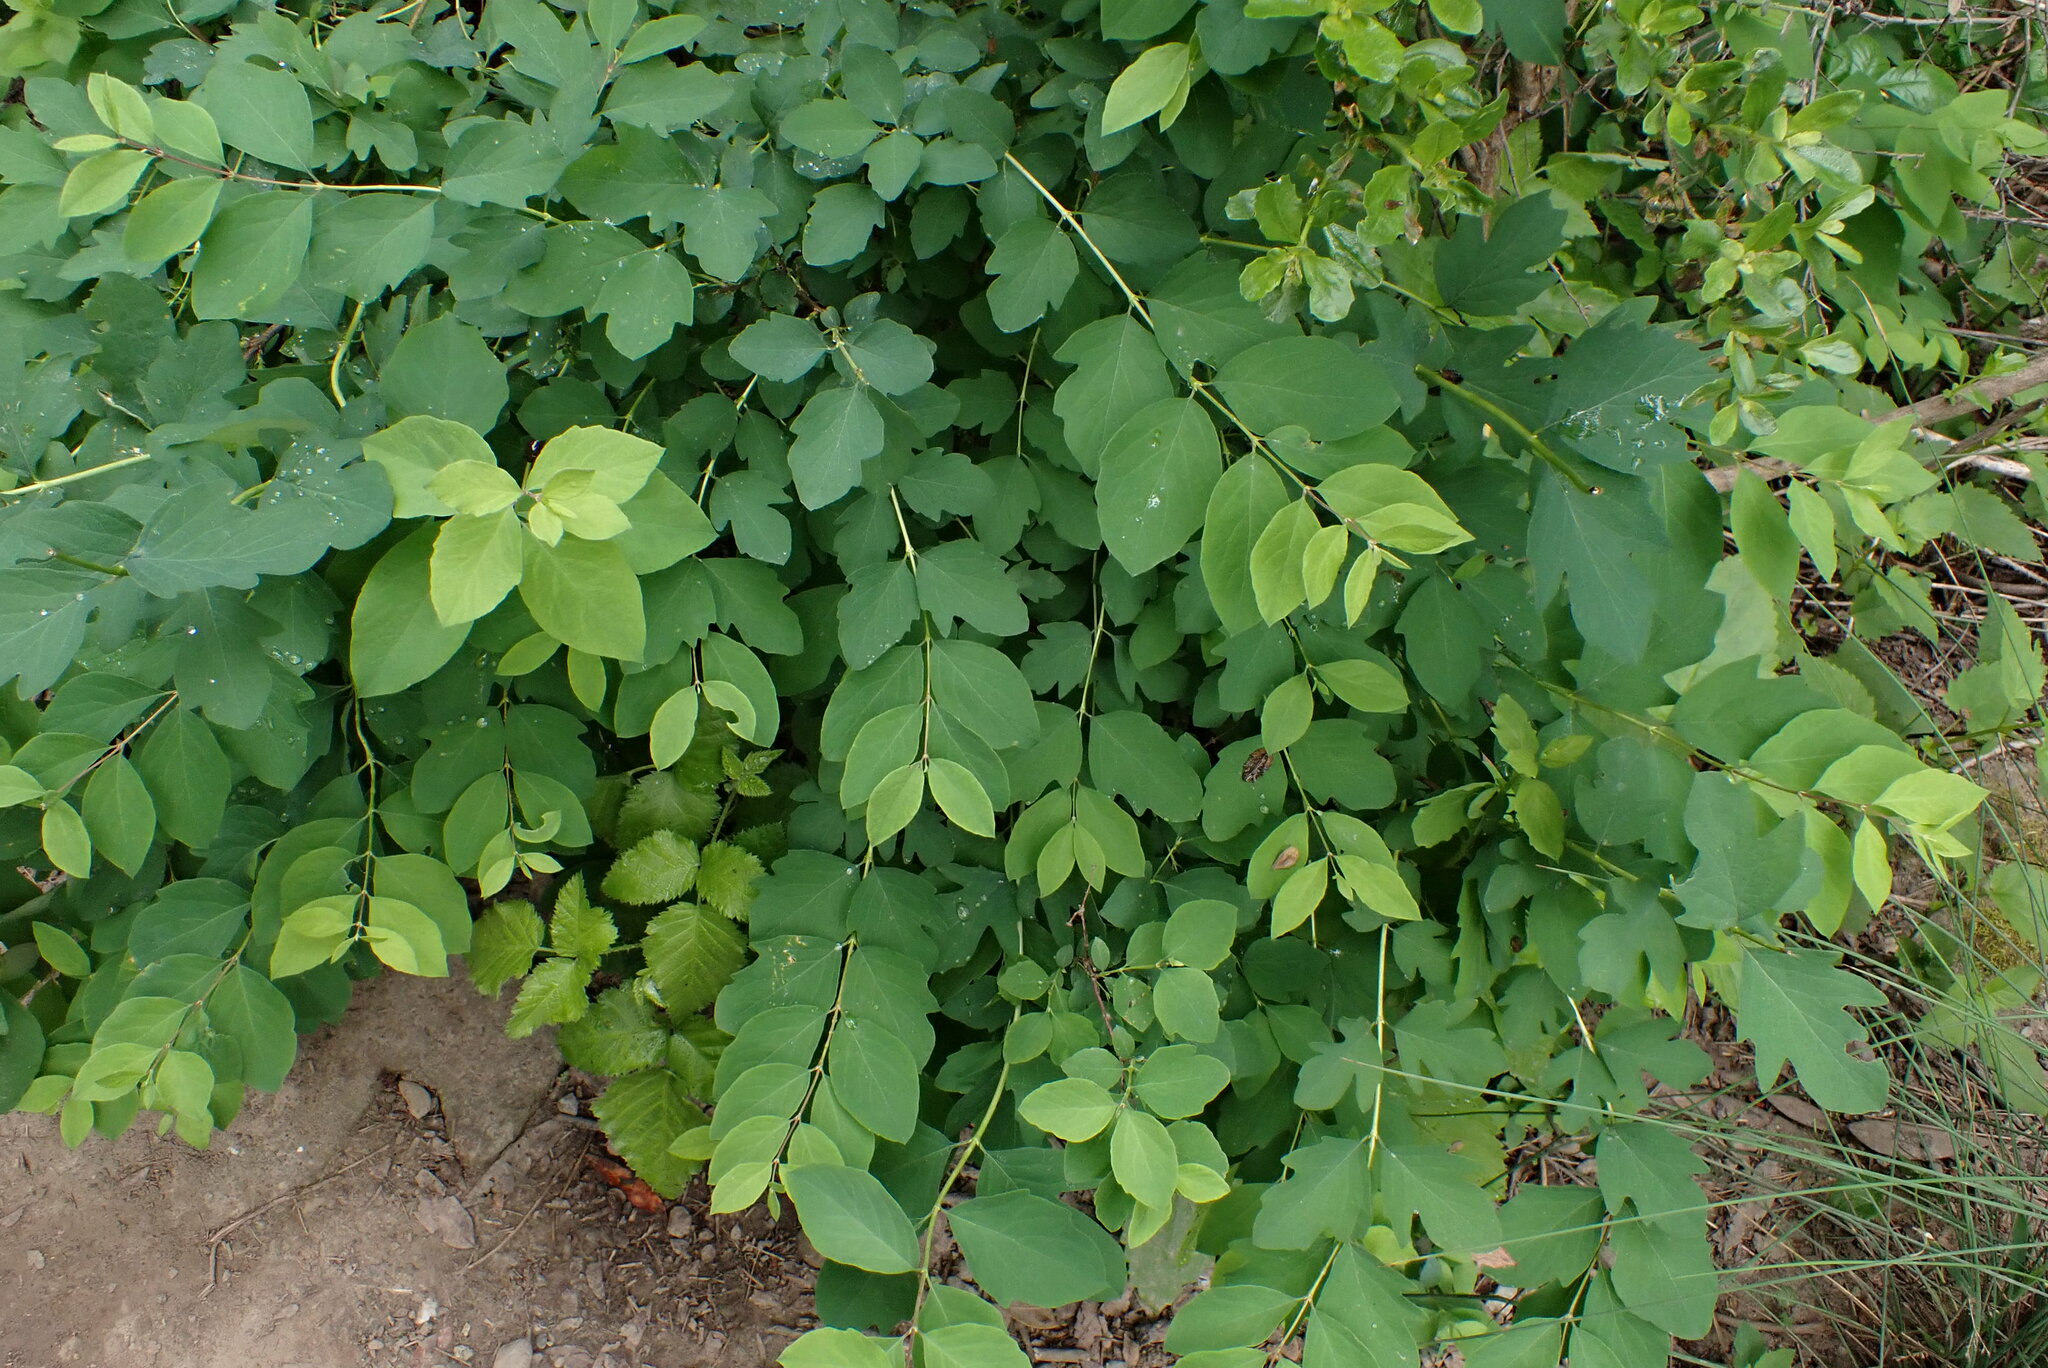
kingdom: Plantae
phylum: Tracheophyta
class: Magnoliopsida
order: Dipsacales
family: Caprifoliaceae
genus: Symphoricarpos
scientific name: Symphoricarpos albus
